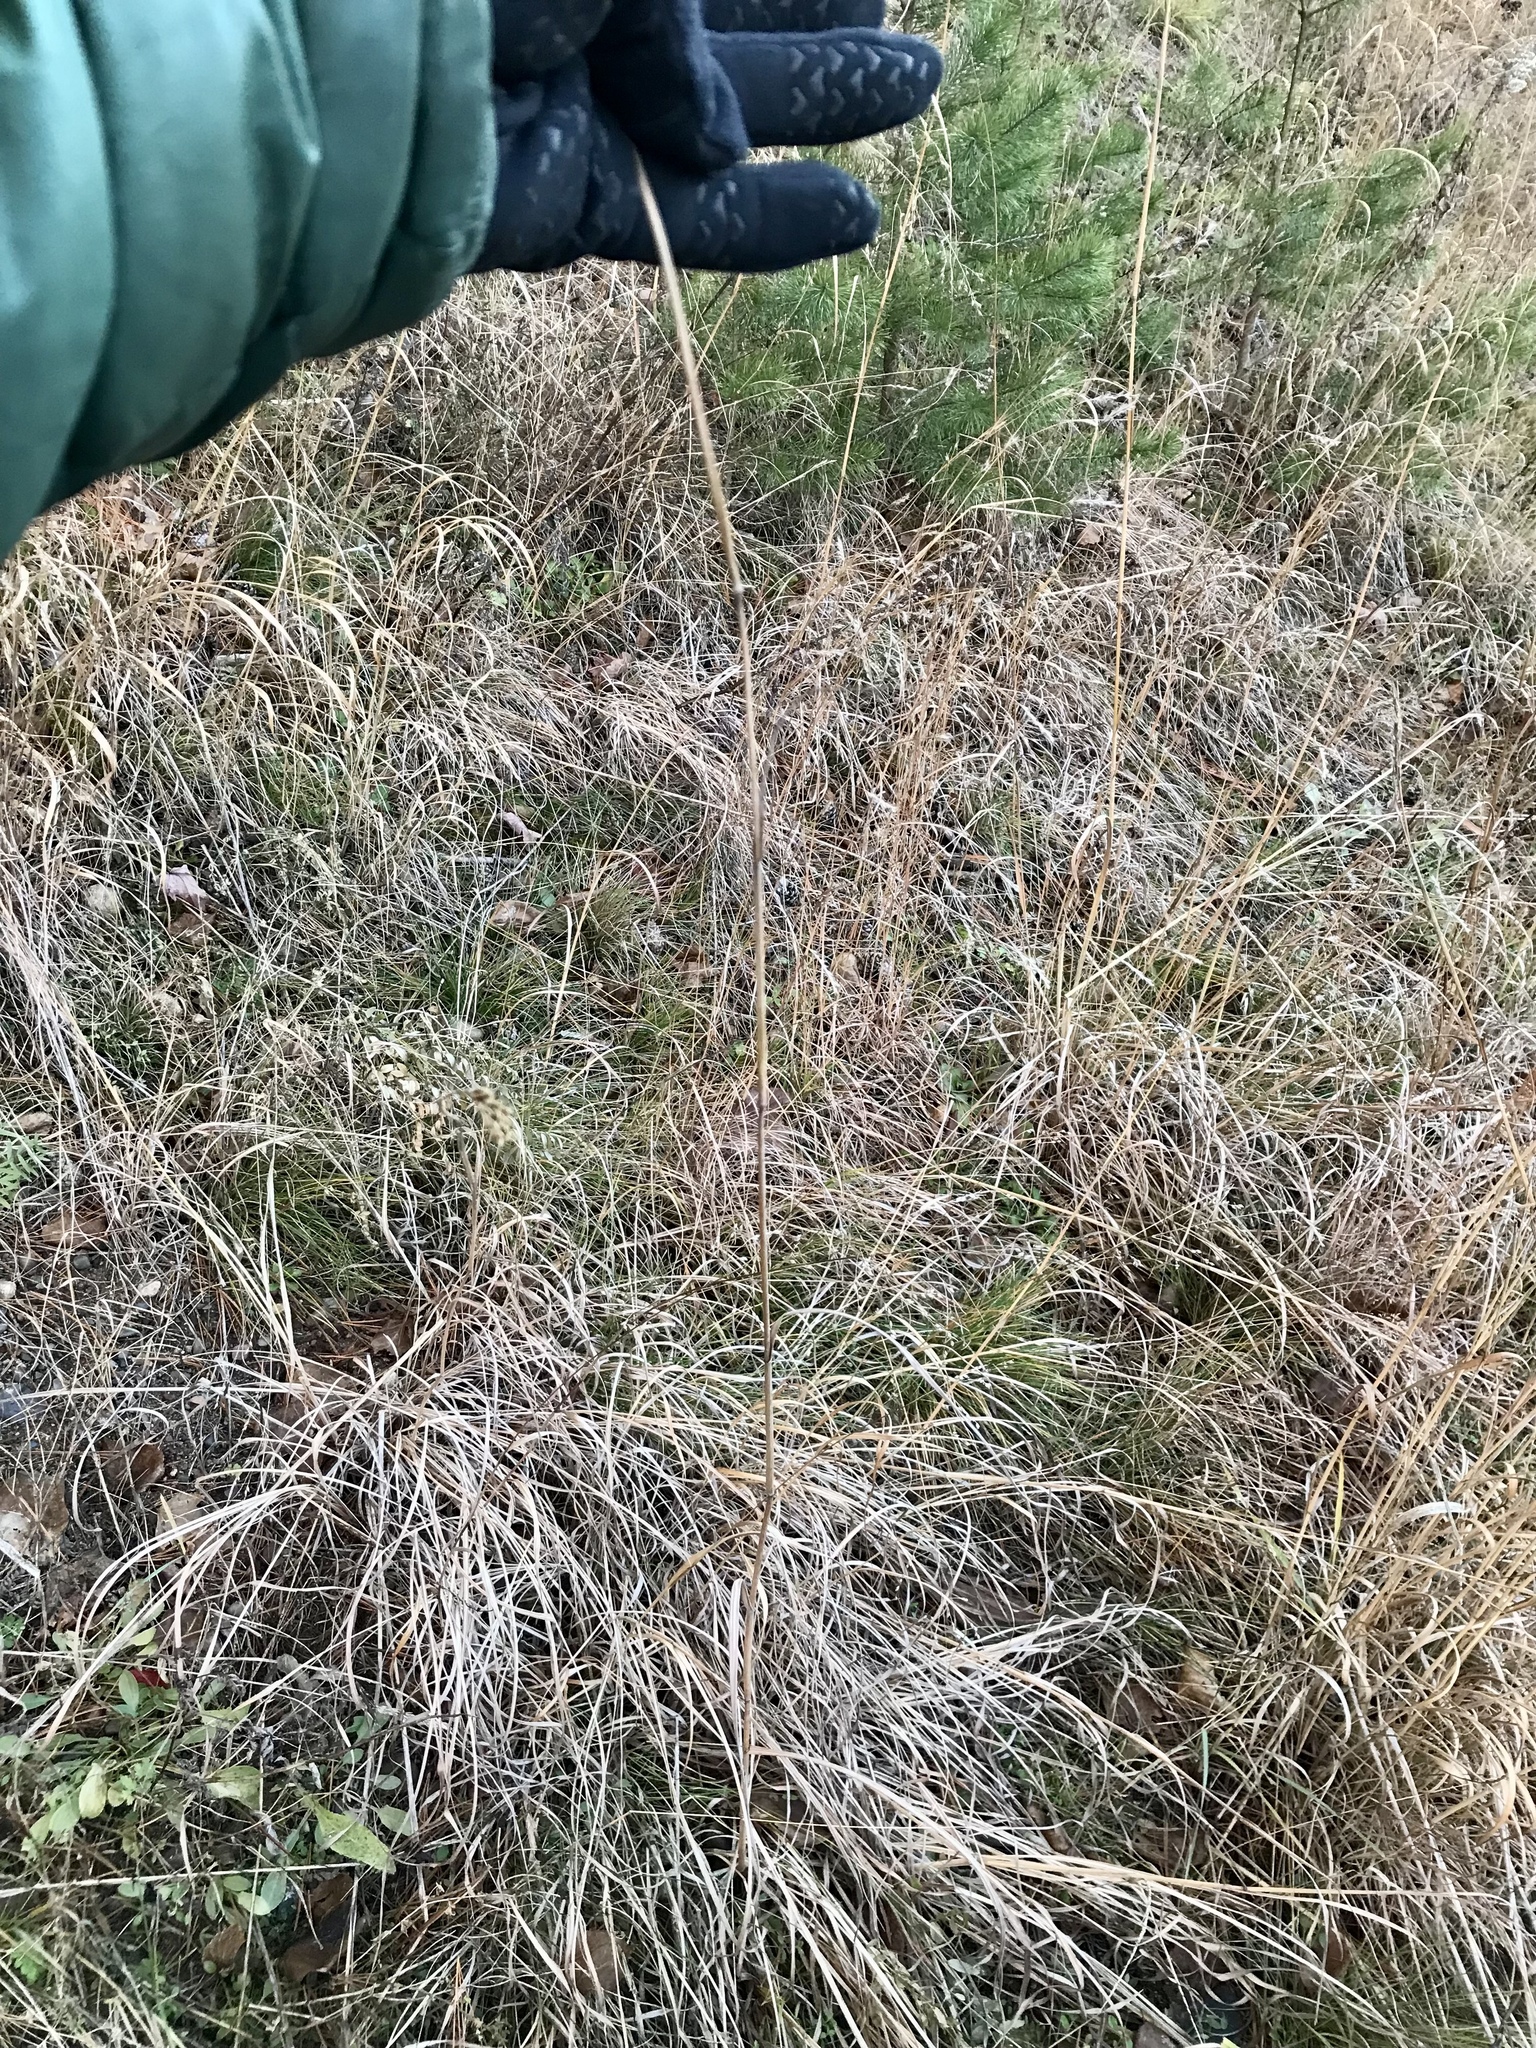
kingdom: Plantae
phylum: Tracheophyta
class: Liliopsida
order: Poales
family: Poaceae
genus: Andropogon
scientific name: Andropogon gerardi
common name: Big bluestem
